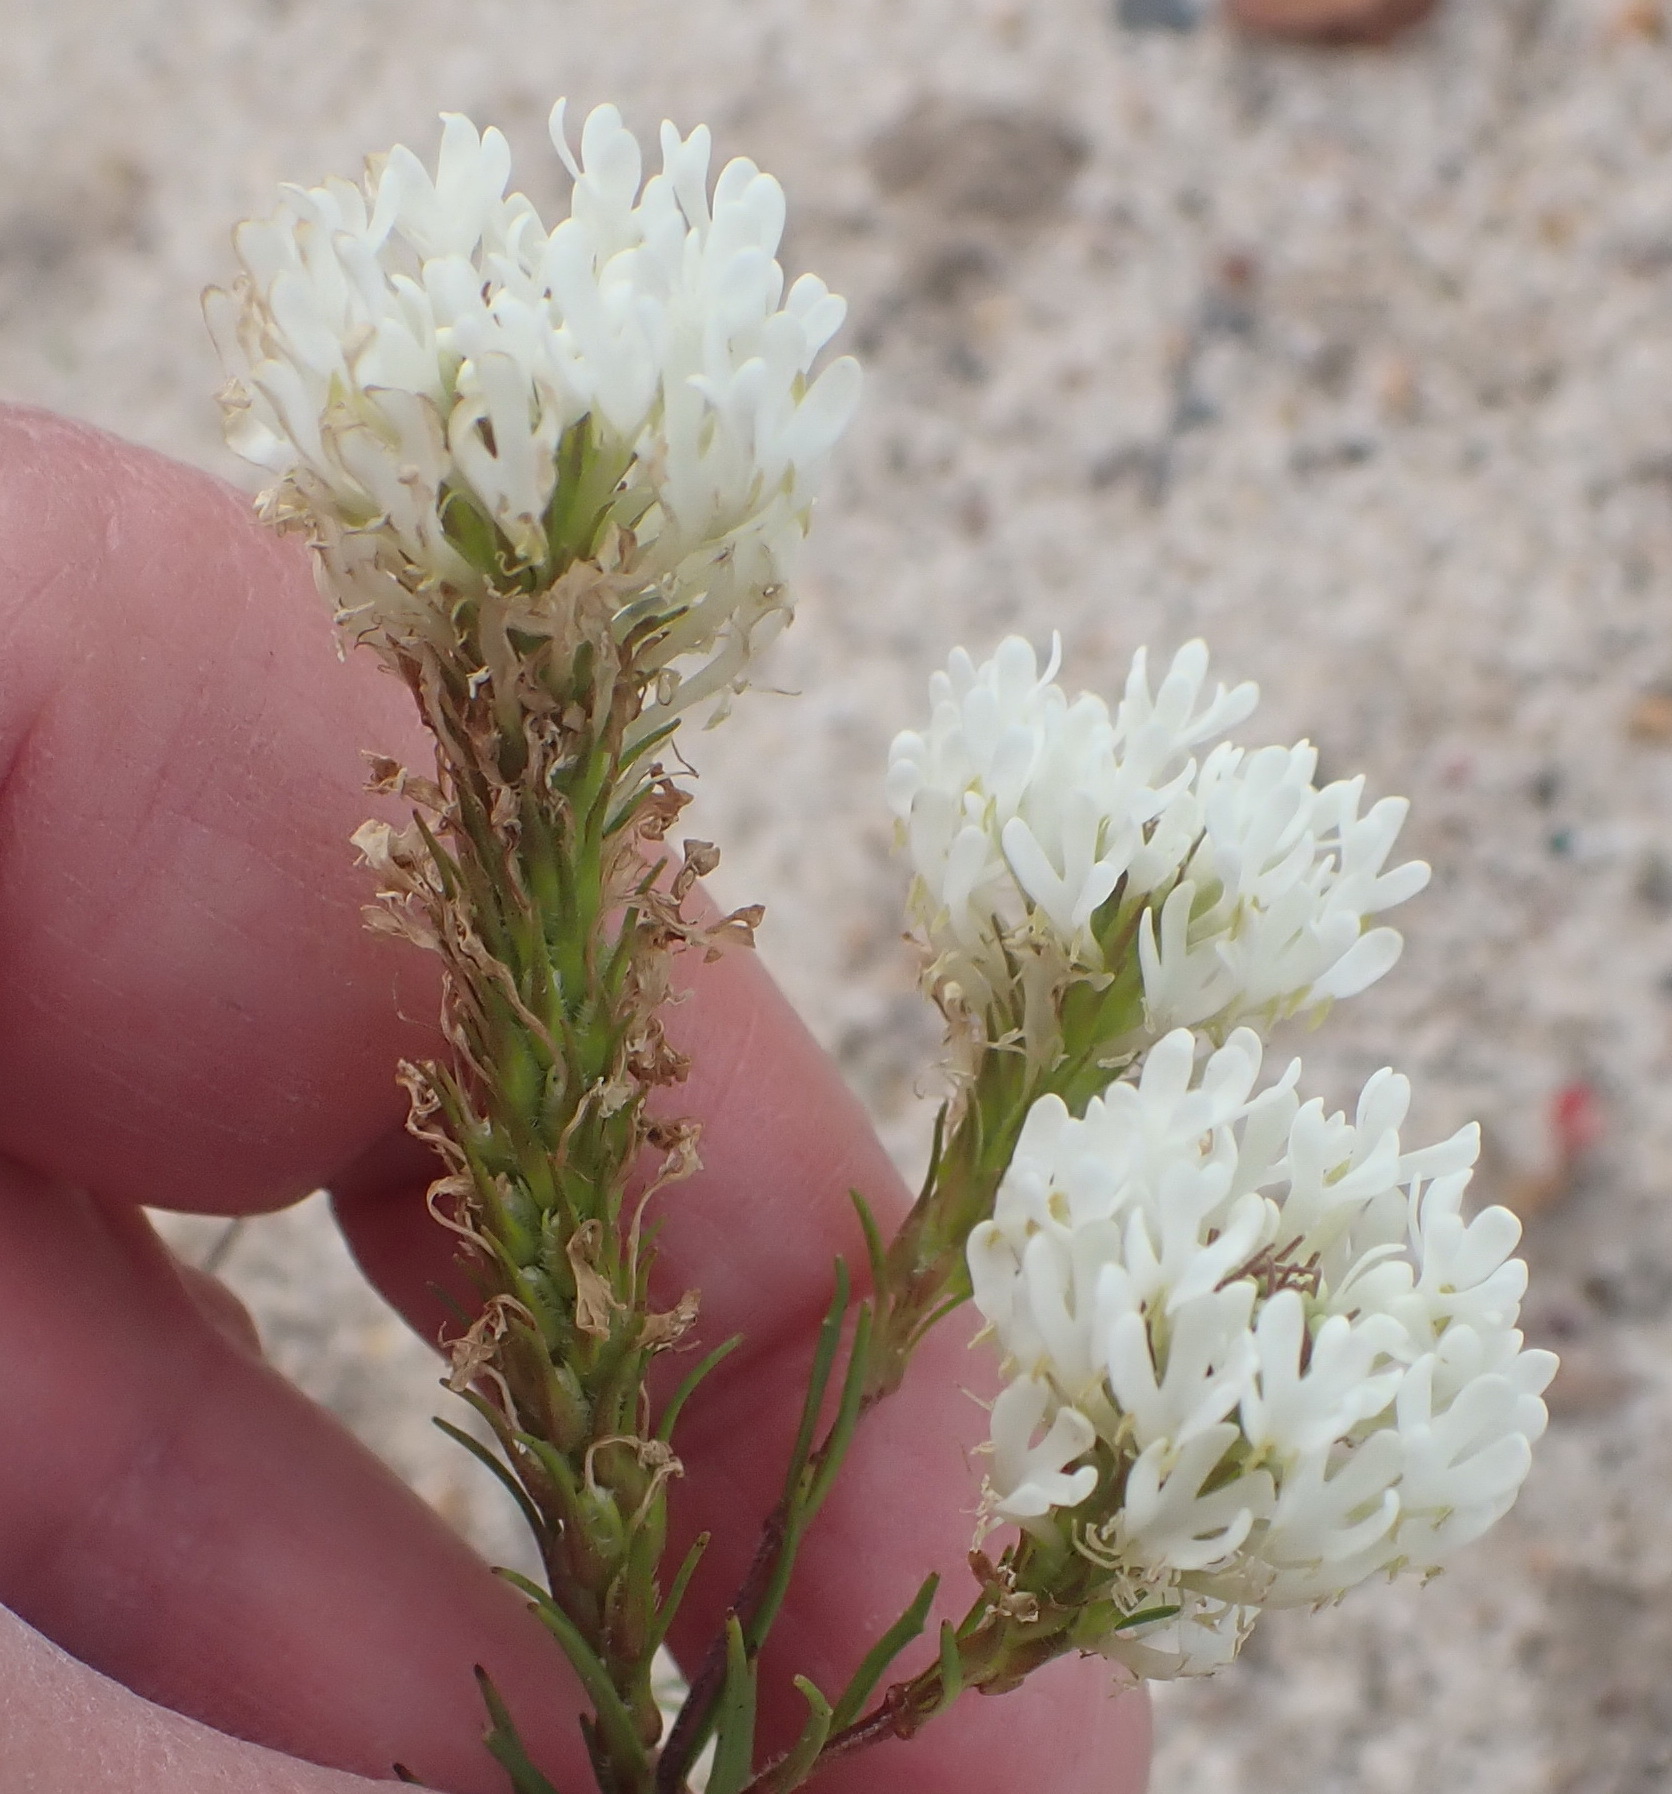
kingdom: Plantae
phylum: Tracheophyta
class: Magnoliopsida
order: Lamiales
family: Scrophulariaceae
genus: Dischisma
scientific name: Dischisma ciliatum
